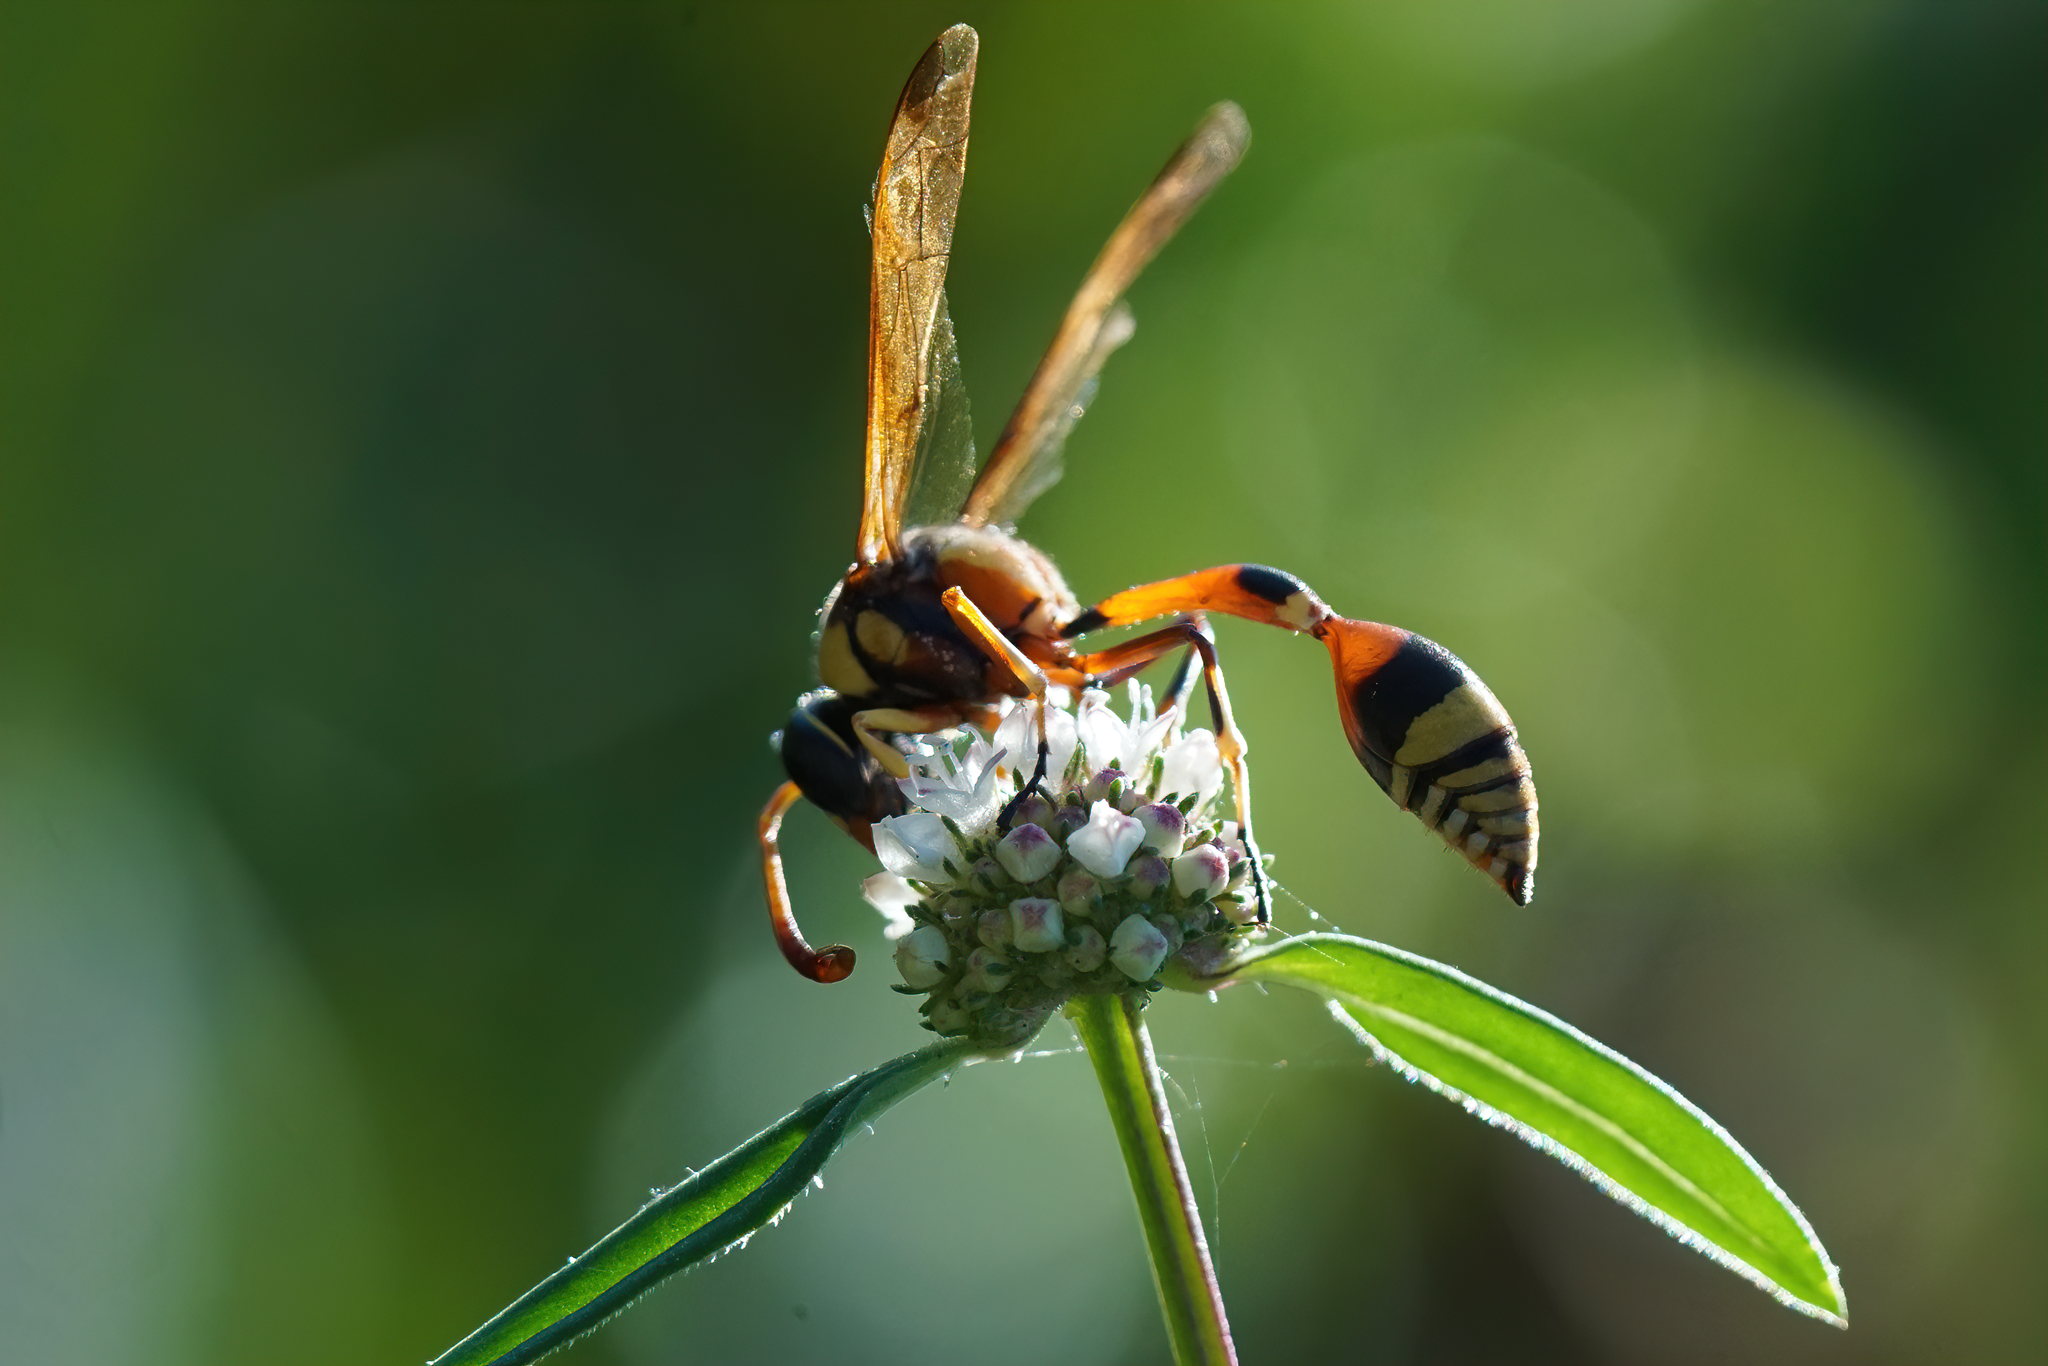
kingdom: Animalia
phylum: Arthropoda
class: Insecta
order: Hymenoptera
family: Eumenidae
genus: Delta
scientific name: Delta esuriens
